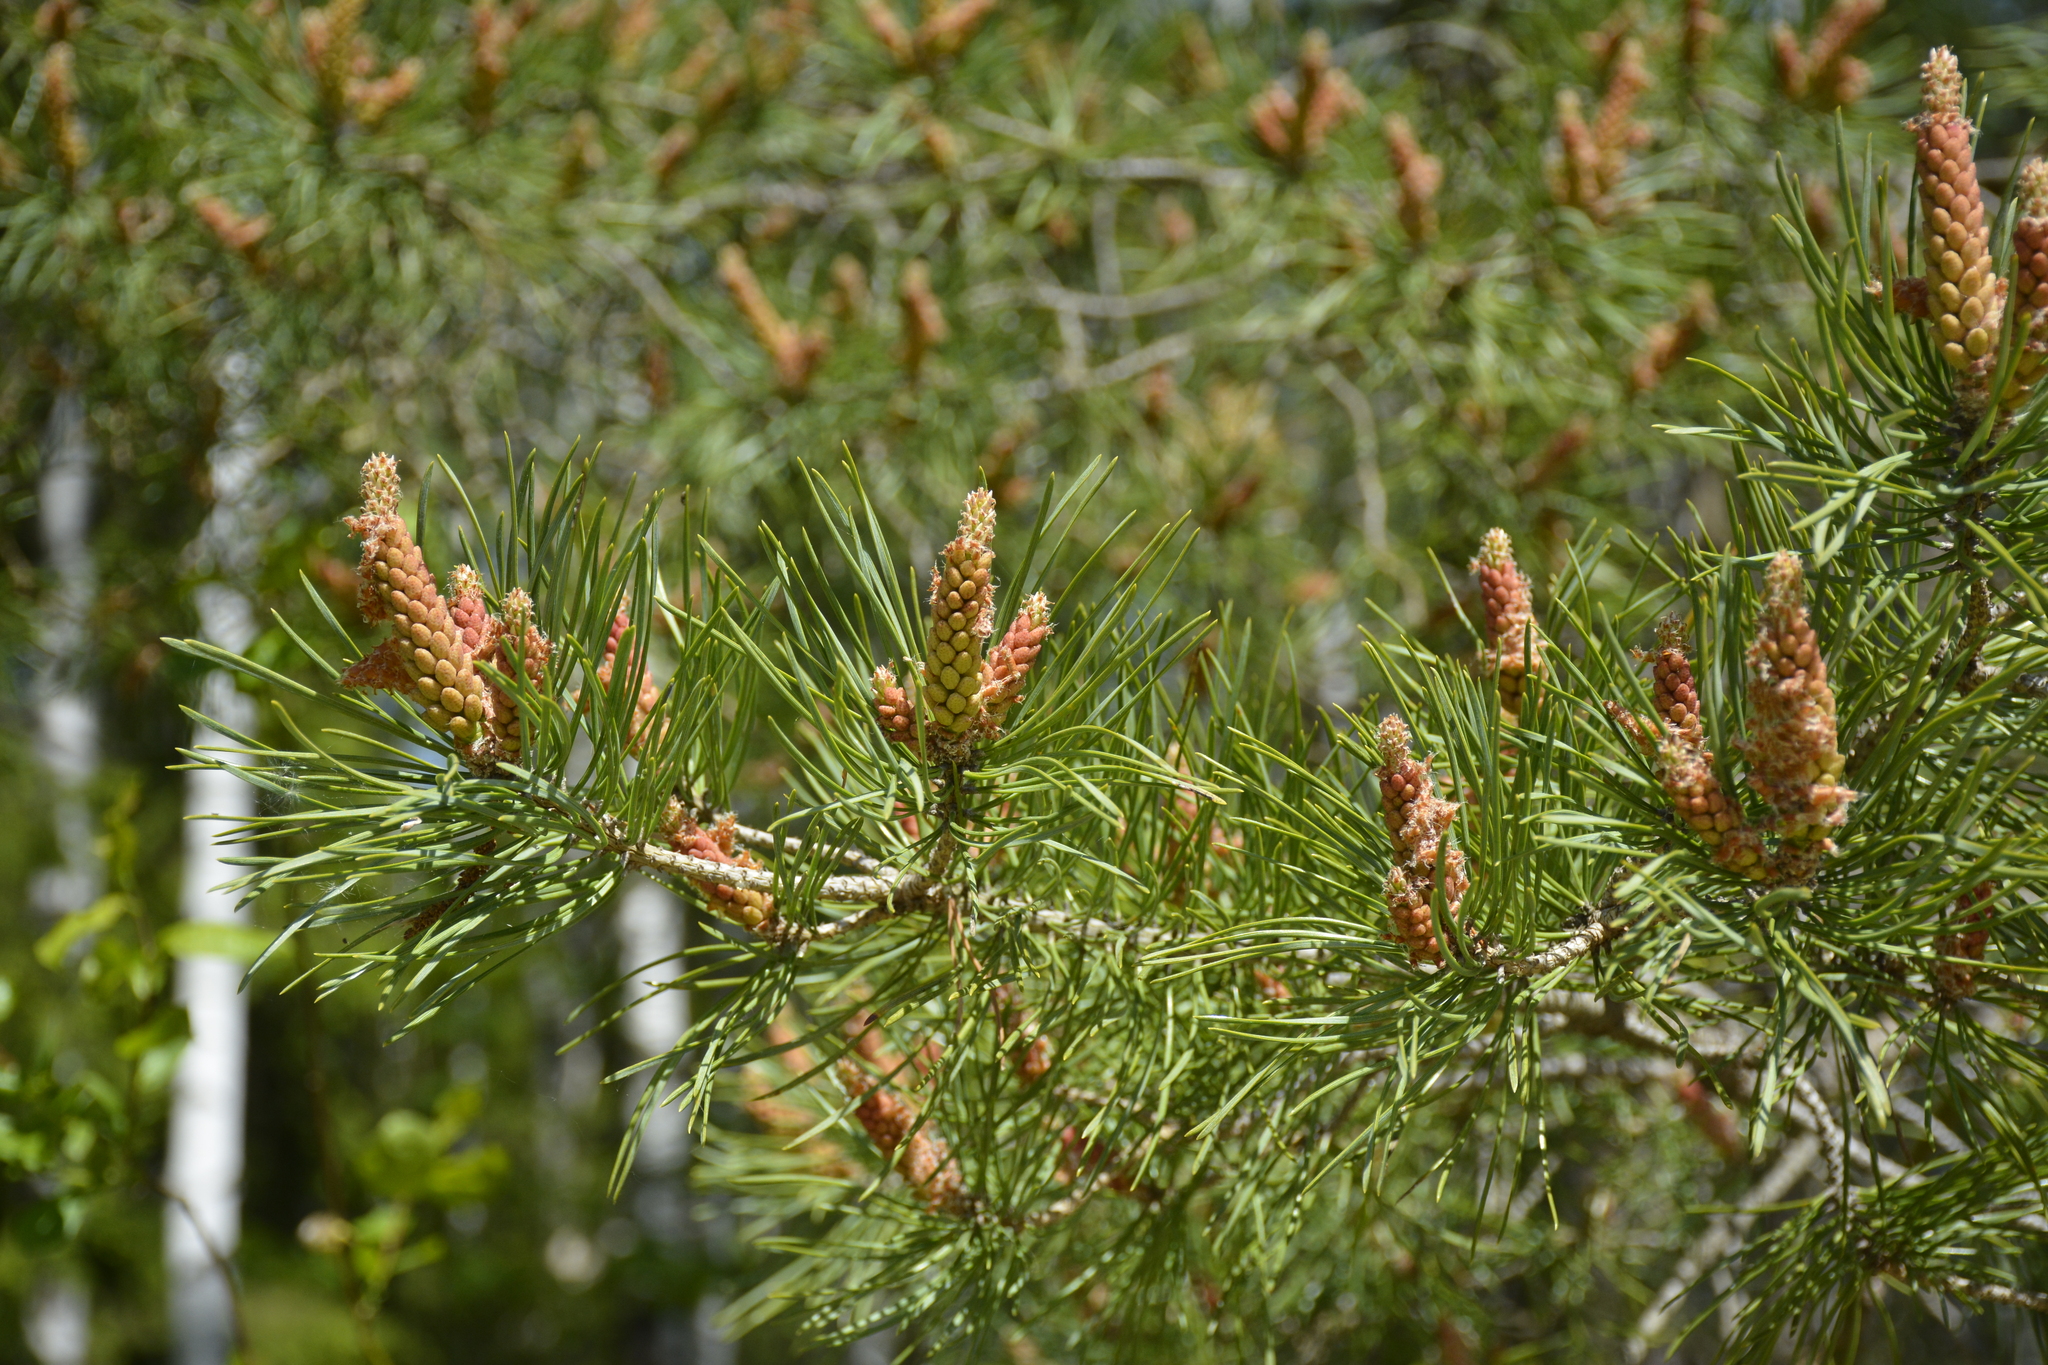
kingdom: Plantae
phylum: Tracheophyta
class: Pinopsida
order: Pinales
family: Pinaceae
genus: Pinus
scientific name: Pinus sylvestris
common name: Scots pine
